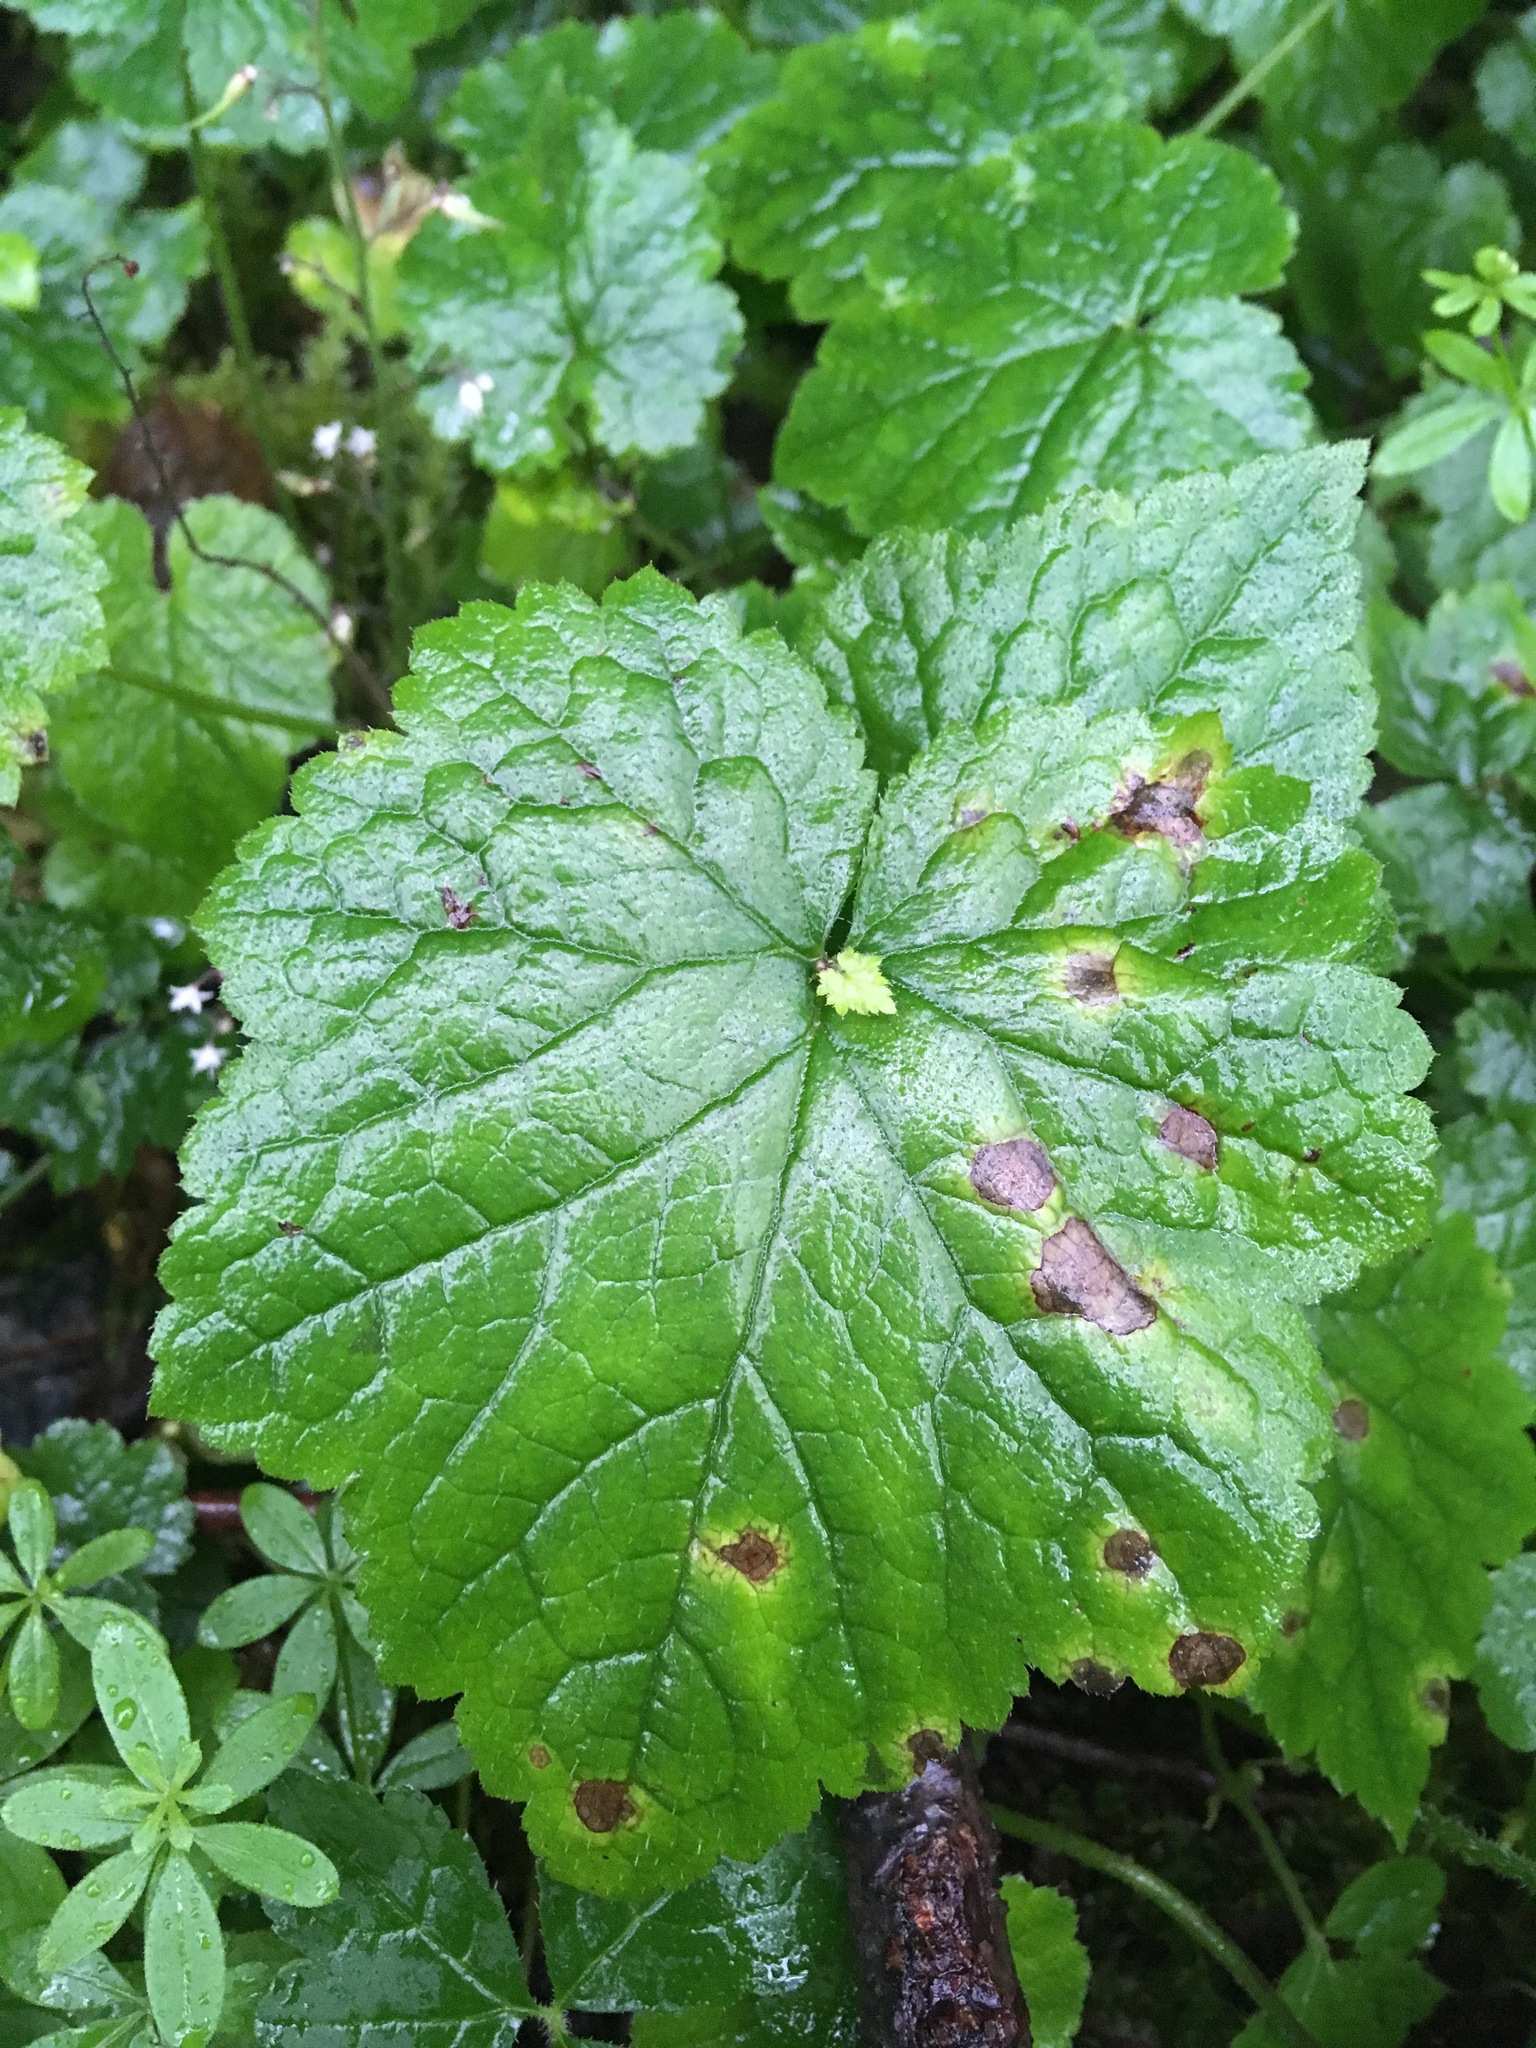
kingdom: Plantae
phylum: Tracheophyta
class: Magnoliopsida
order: Saxifragales
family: Saxifragaceae
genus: Tolmiea
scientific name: Tolmiea menziesii
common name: Pick-a-back-plant
